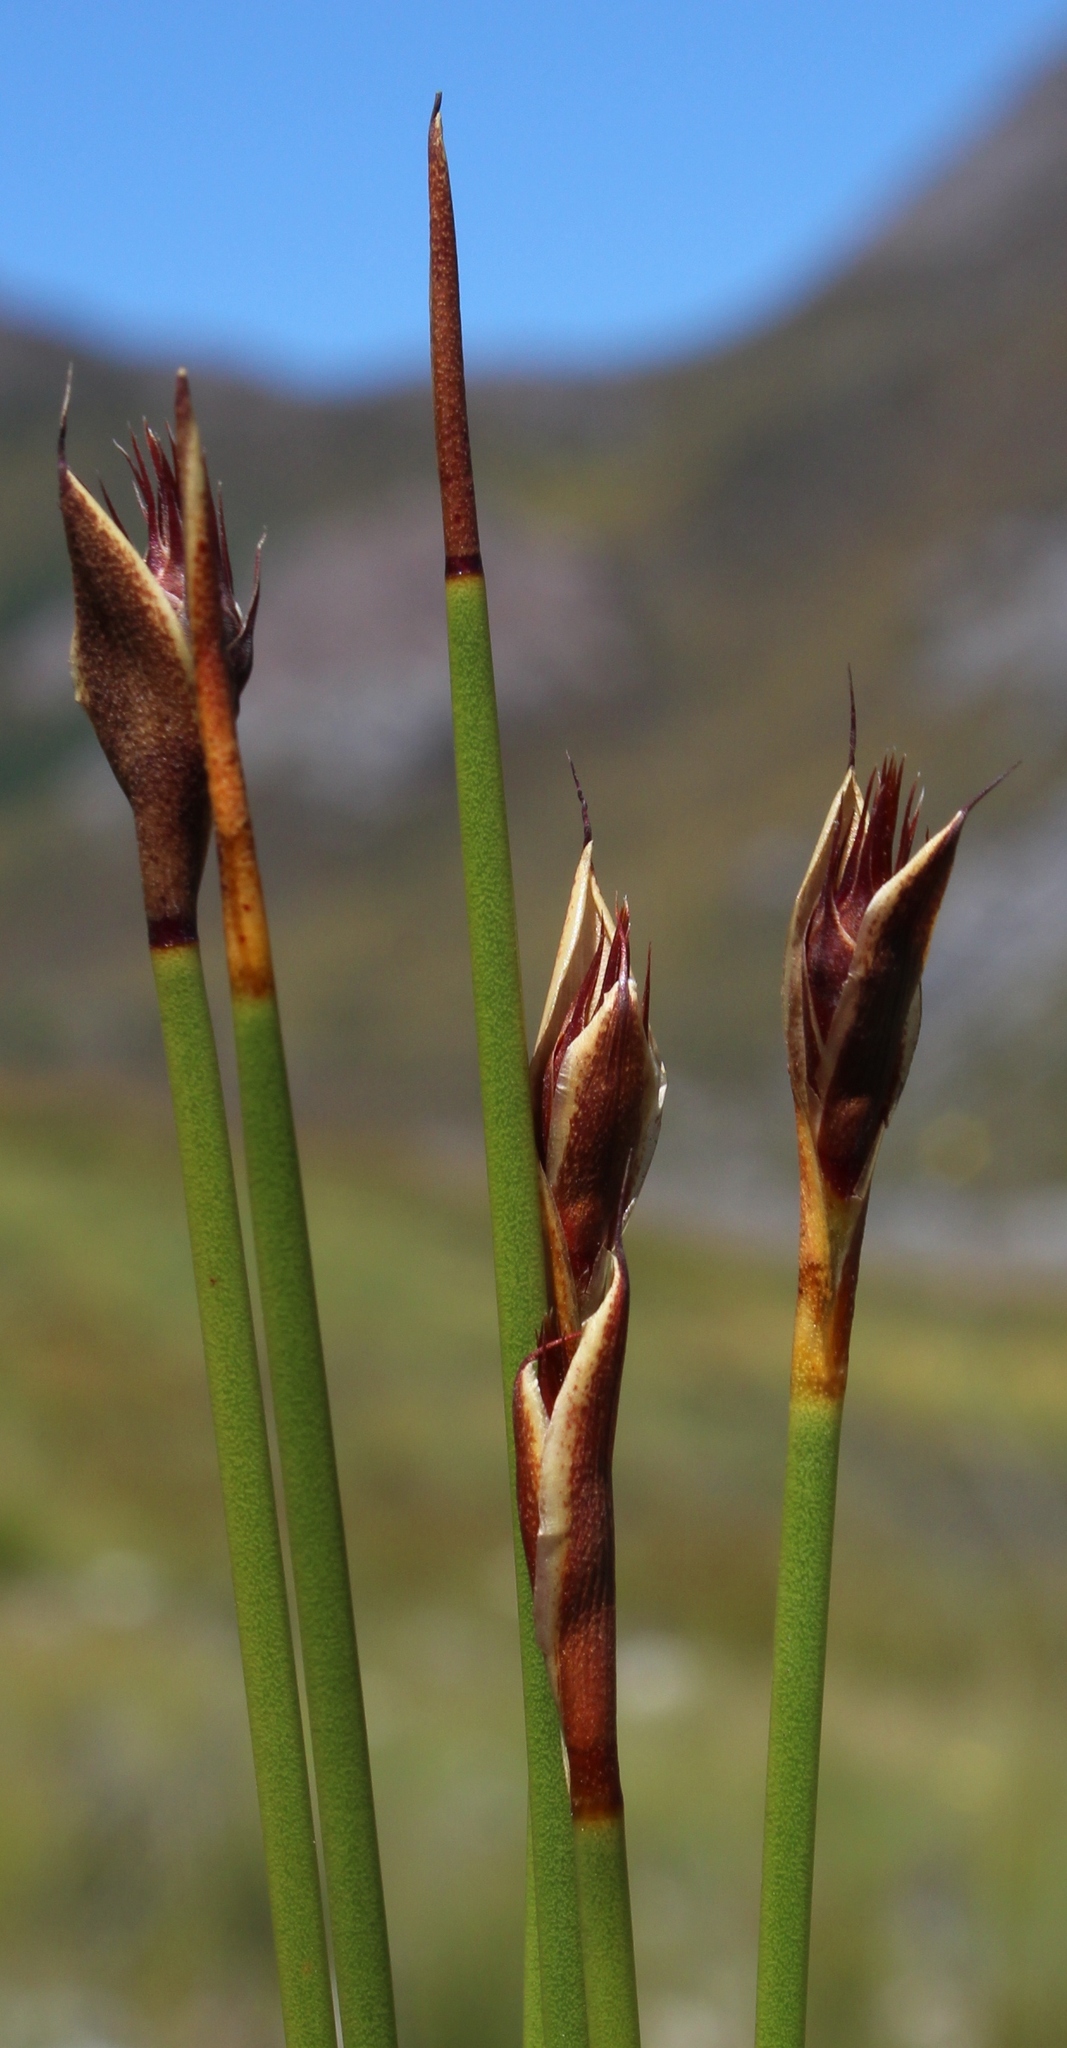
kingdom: Plantae
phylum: Tracheophyta
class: Liliopsida
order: Poales
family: Restionaceae
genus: Hypodiscus
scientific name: Hypodiscus aristatus
